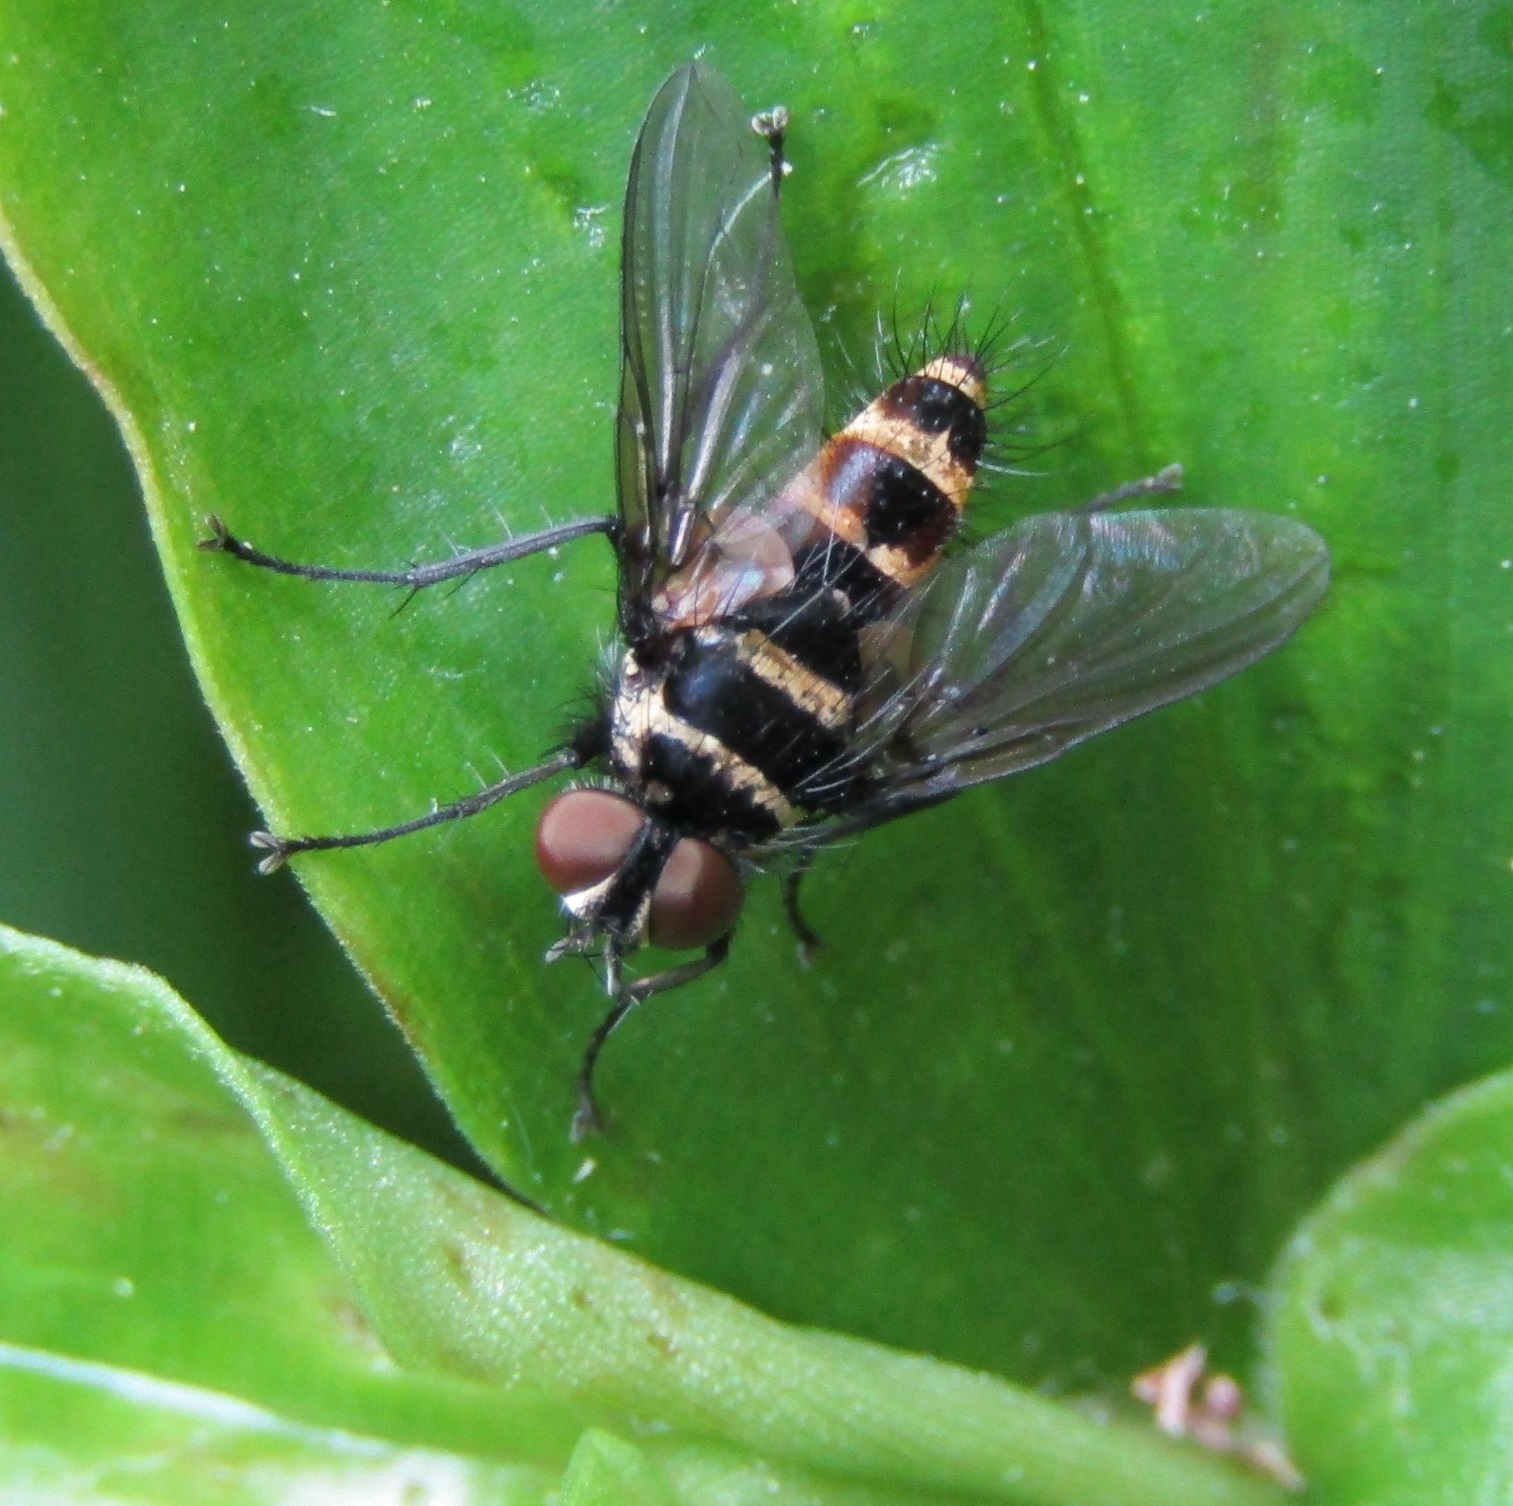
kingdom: Animalia
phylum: Arthropoda
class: Insecta
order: Diptera
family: Tachinidae
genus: Trigonospila
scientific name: Trigonospila brevifacies
